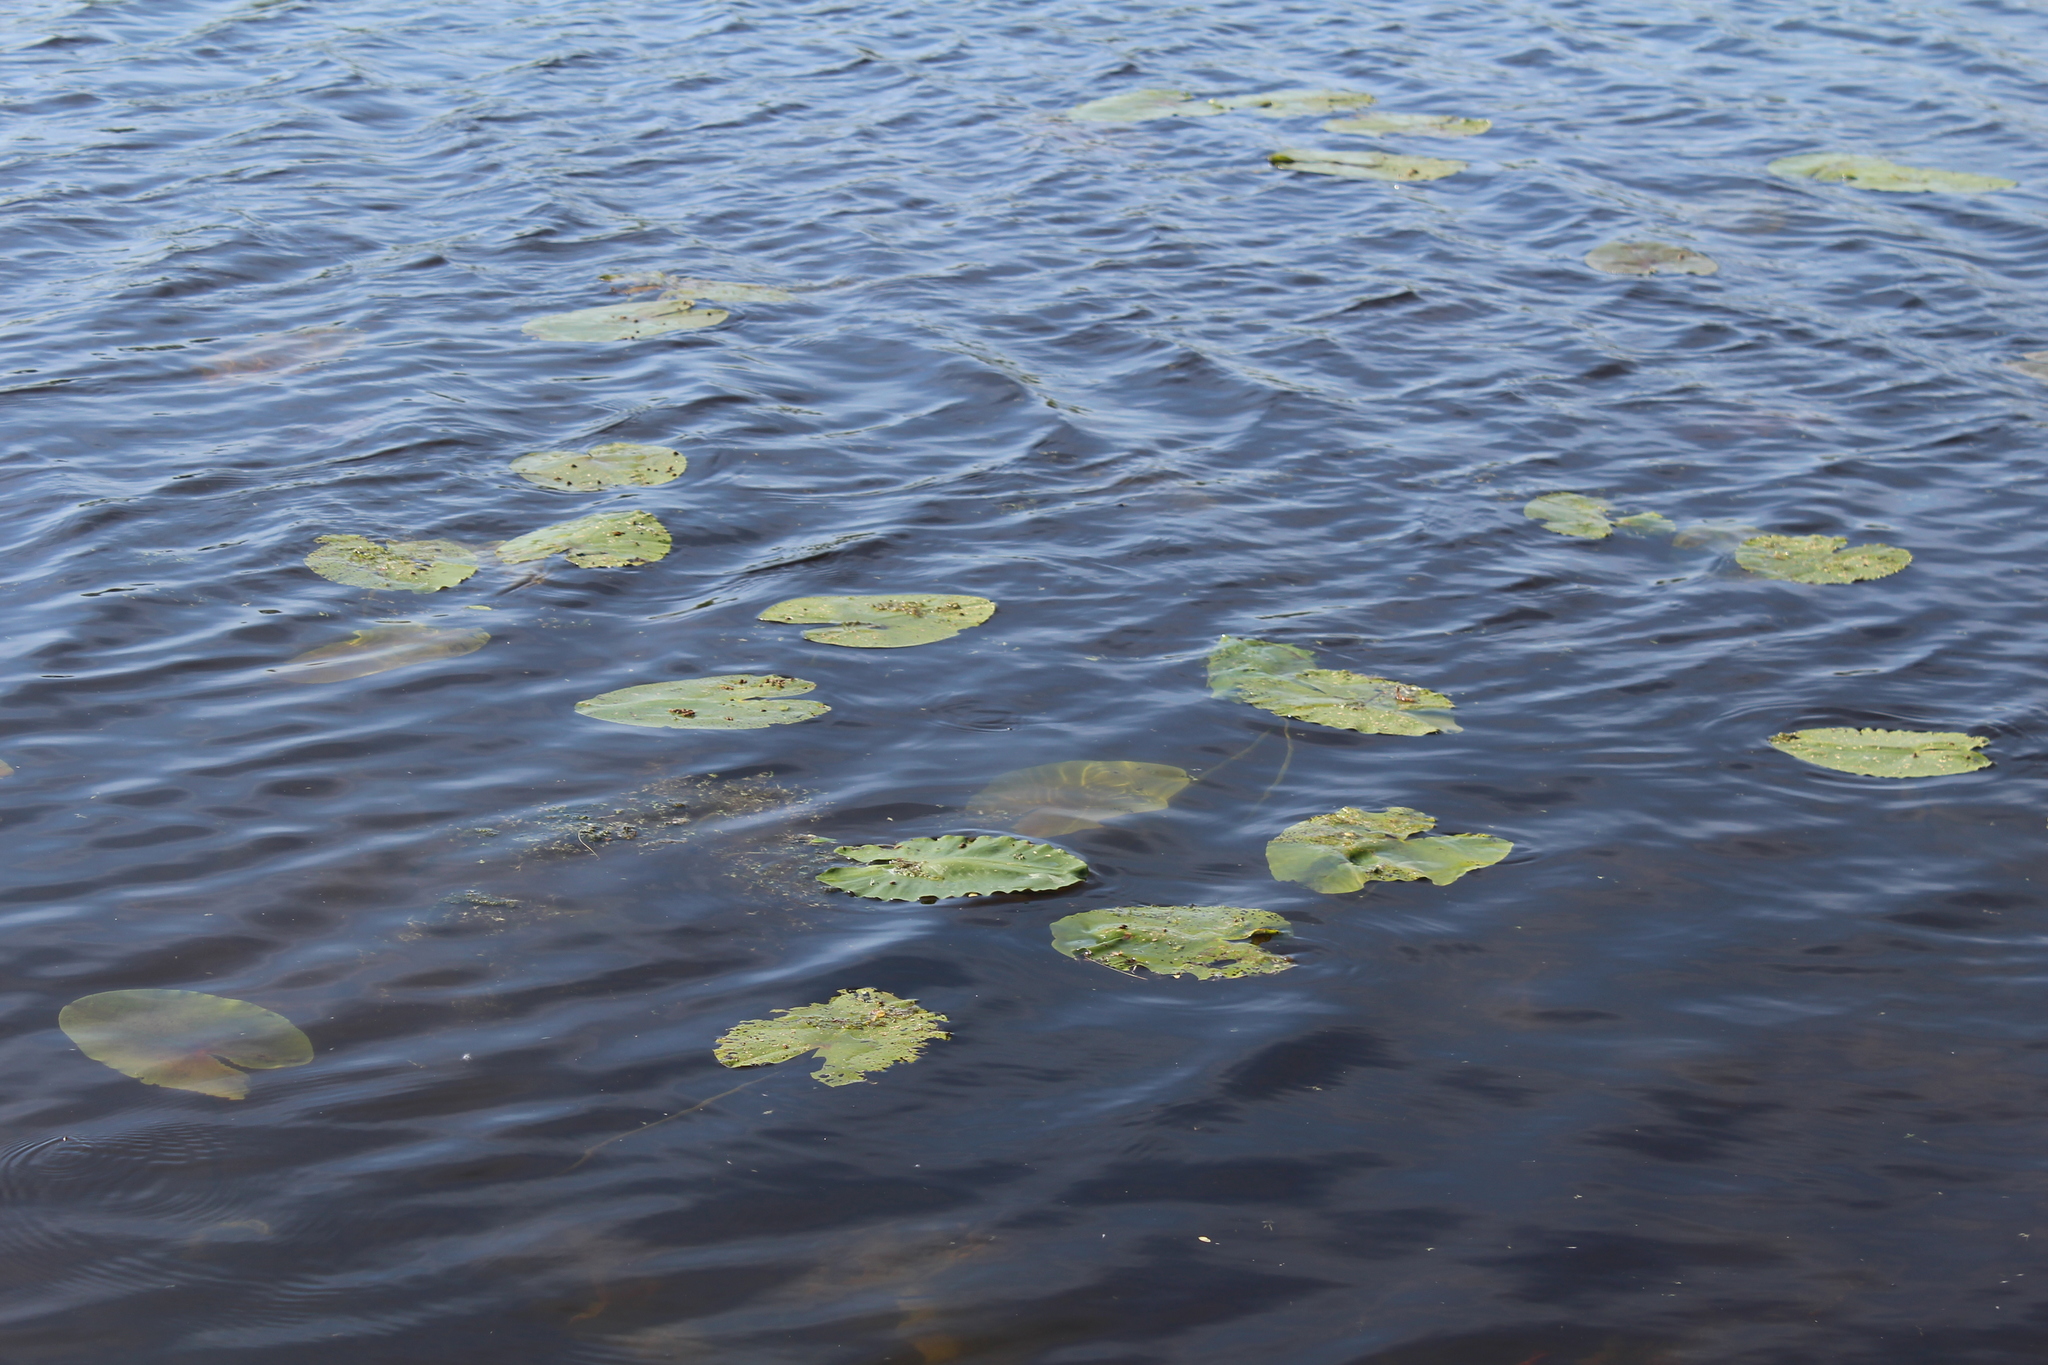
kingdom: Plantae
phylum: Tracheophyta
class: Magnoliopsida
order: Nymphaeales
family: Nymphaeaceae
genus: Nuphar
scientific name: Nuphar lutea
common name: Yellow water-lily
